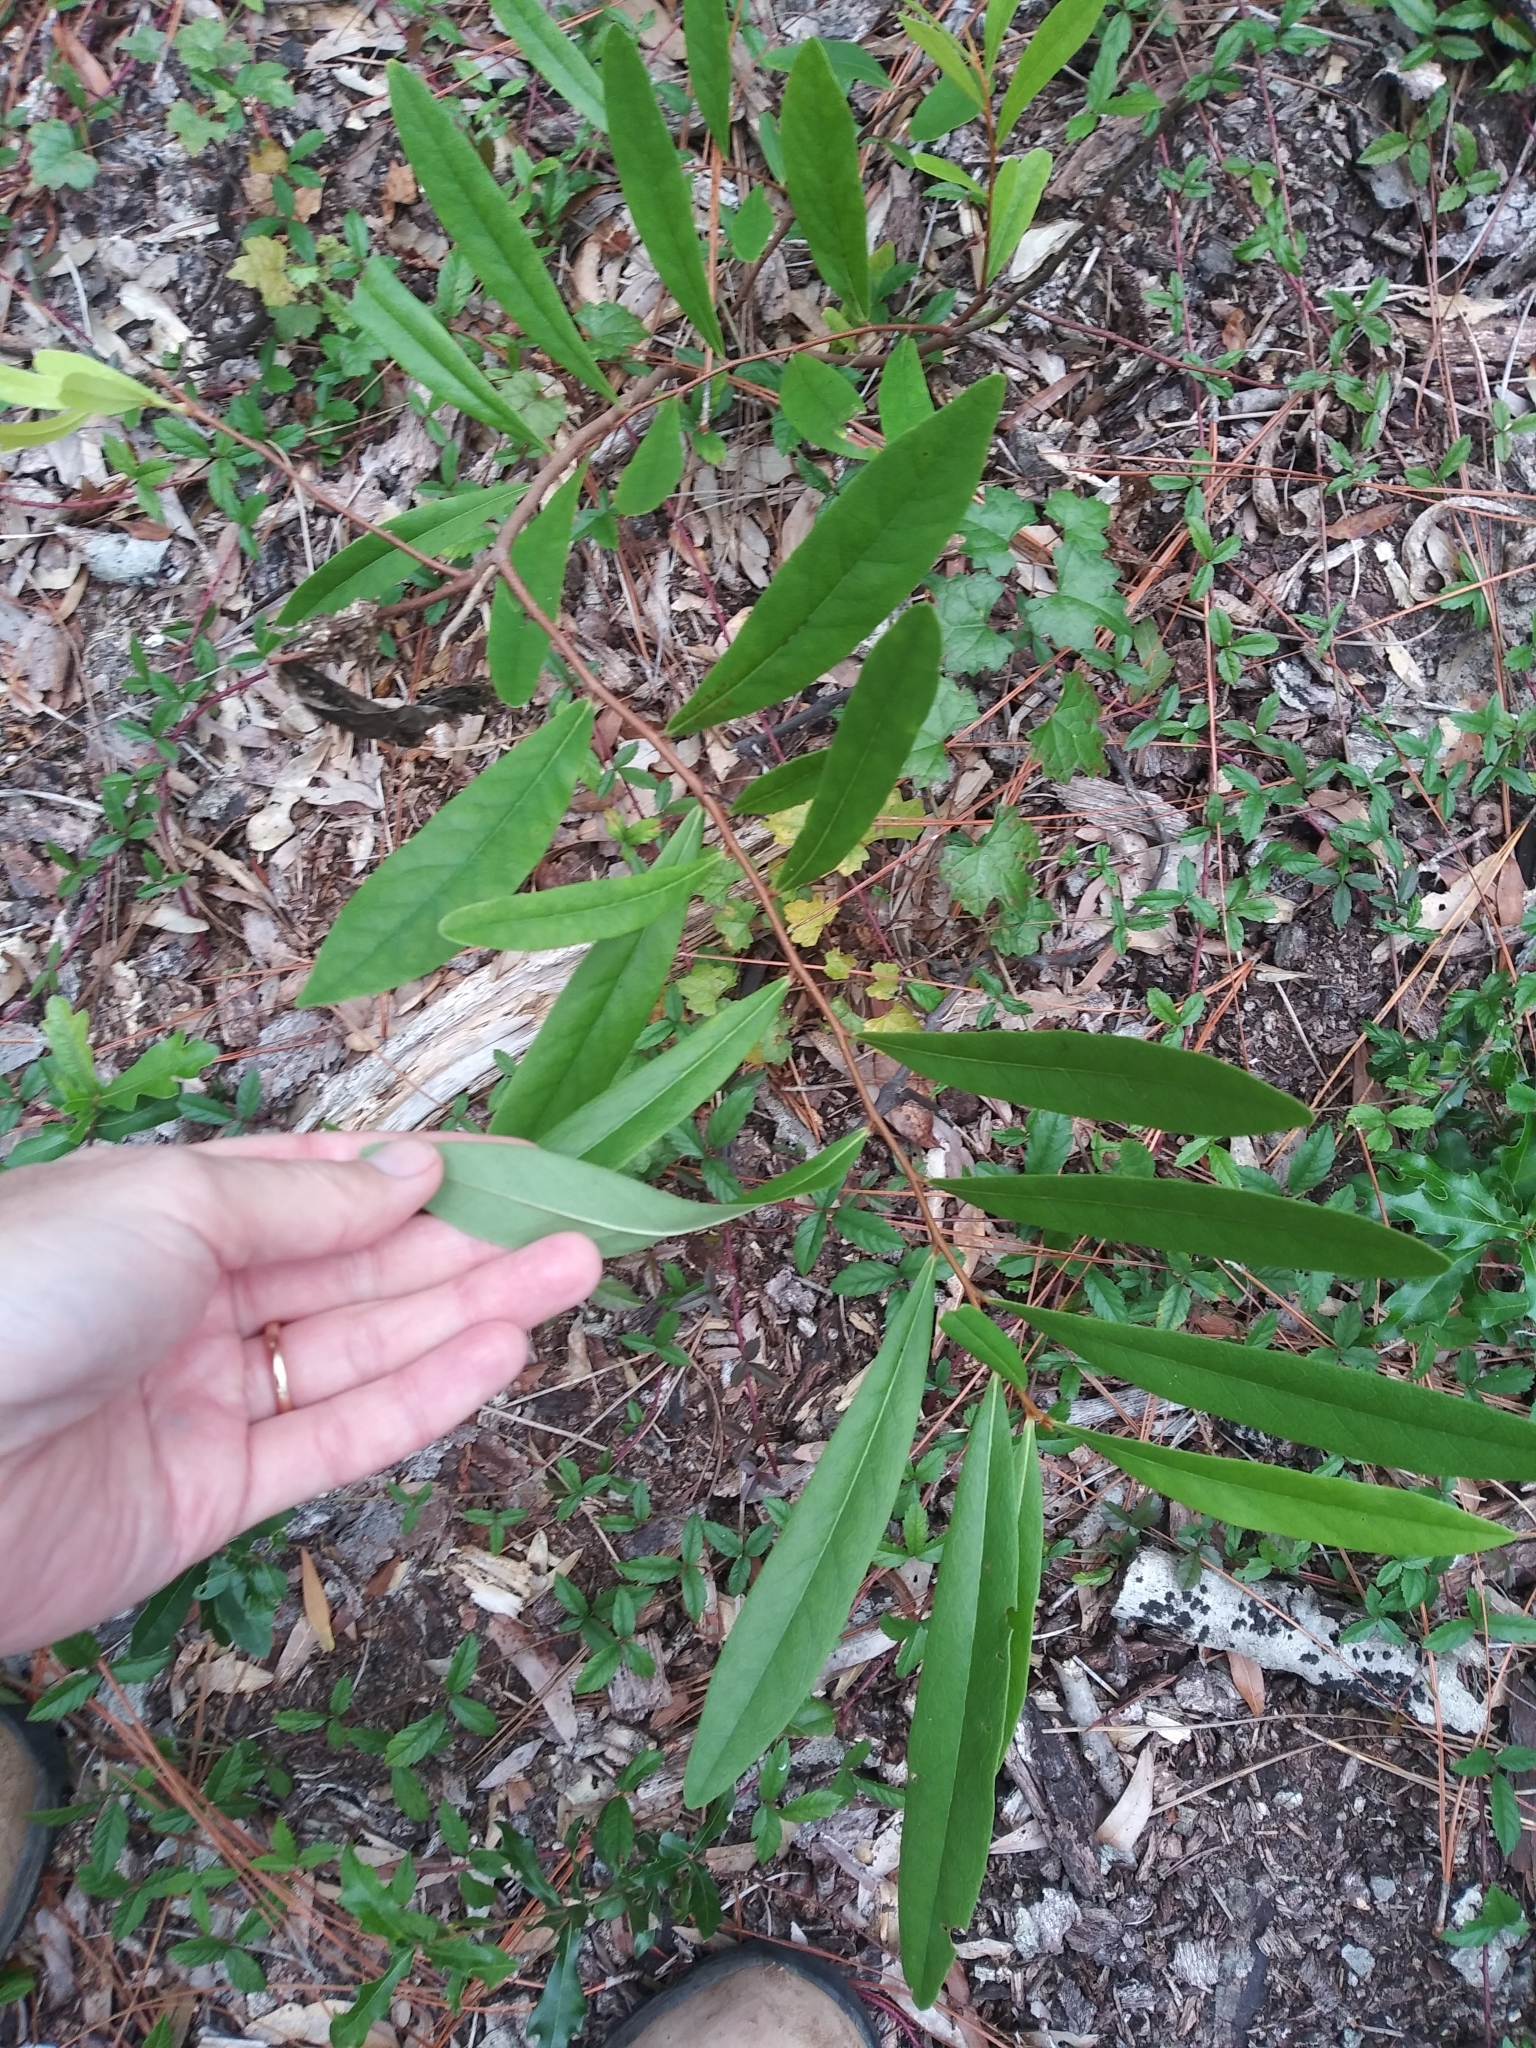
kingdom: Plantae
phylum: Tracheophyta
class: Magnoliopsida
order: Magnoliales
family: Annonaceae
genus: Asimina
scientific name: Asimina longifolia
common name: Polecatbush
